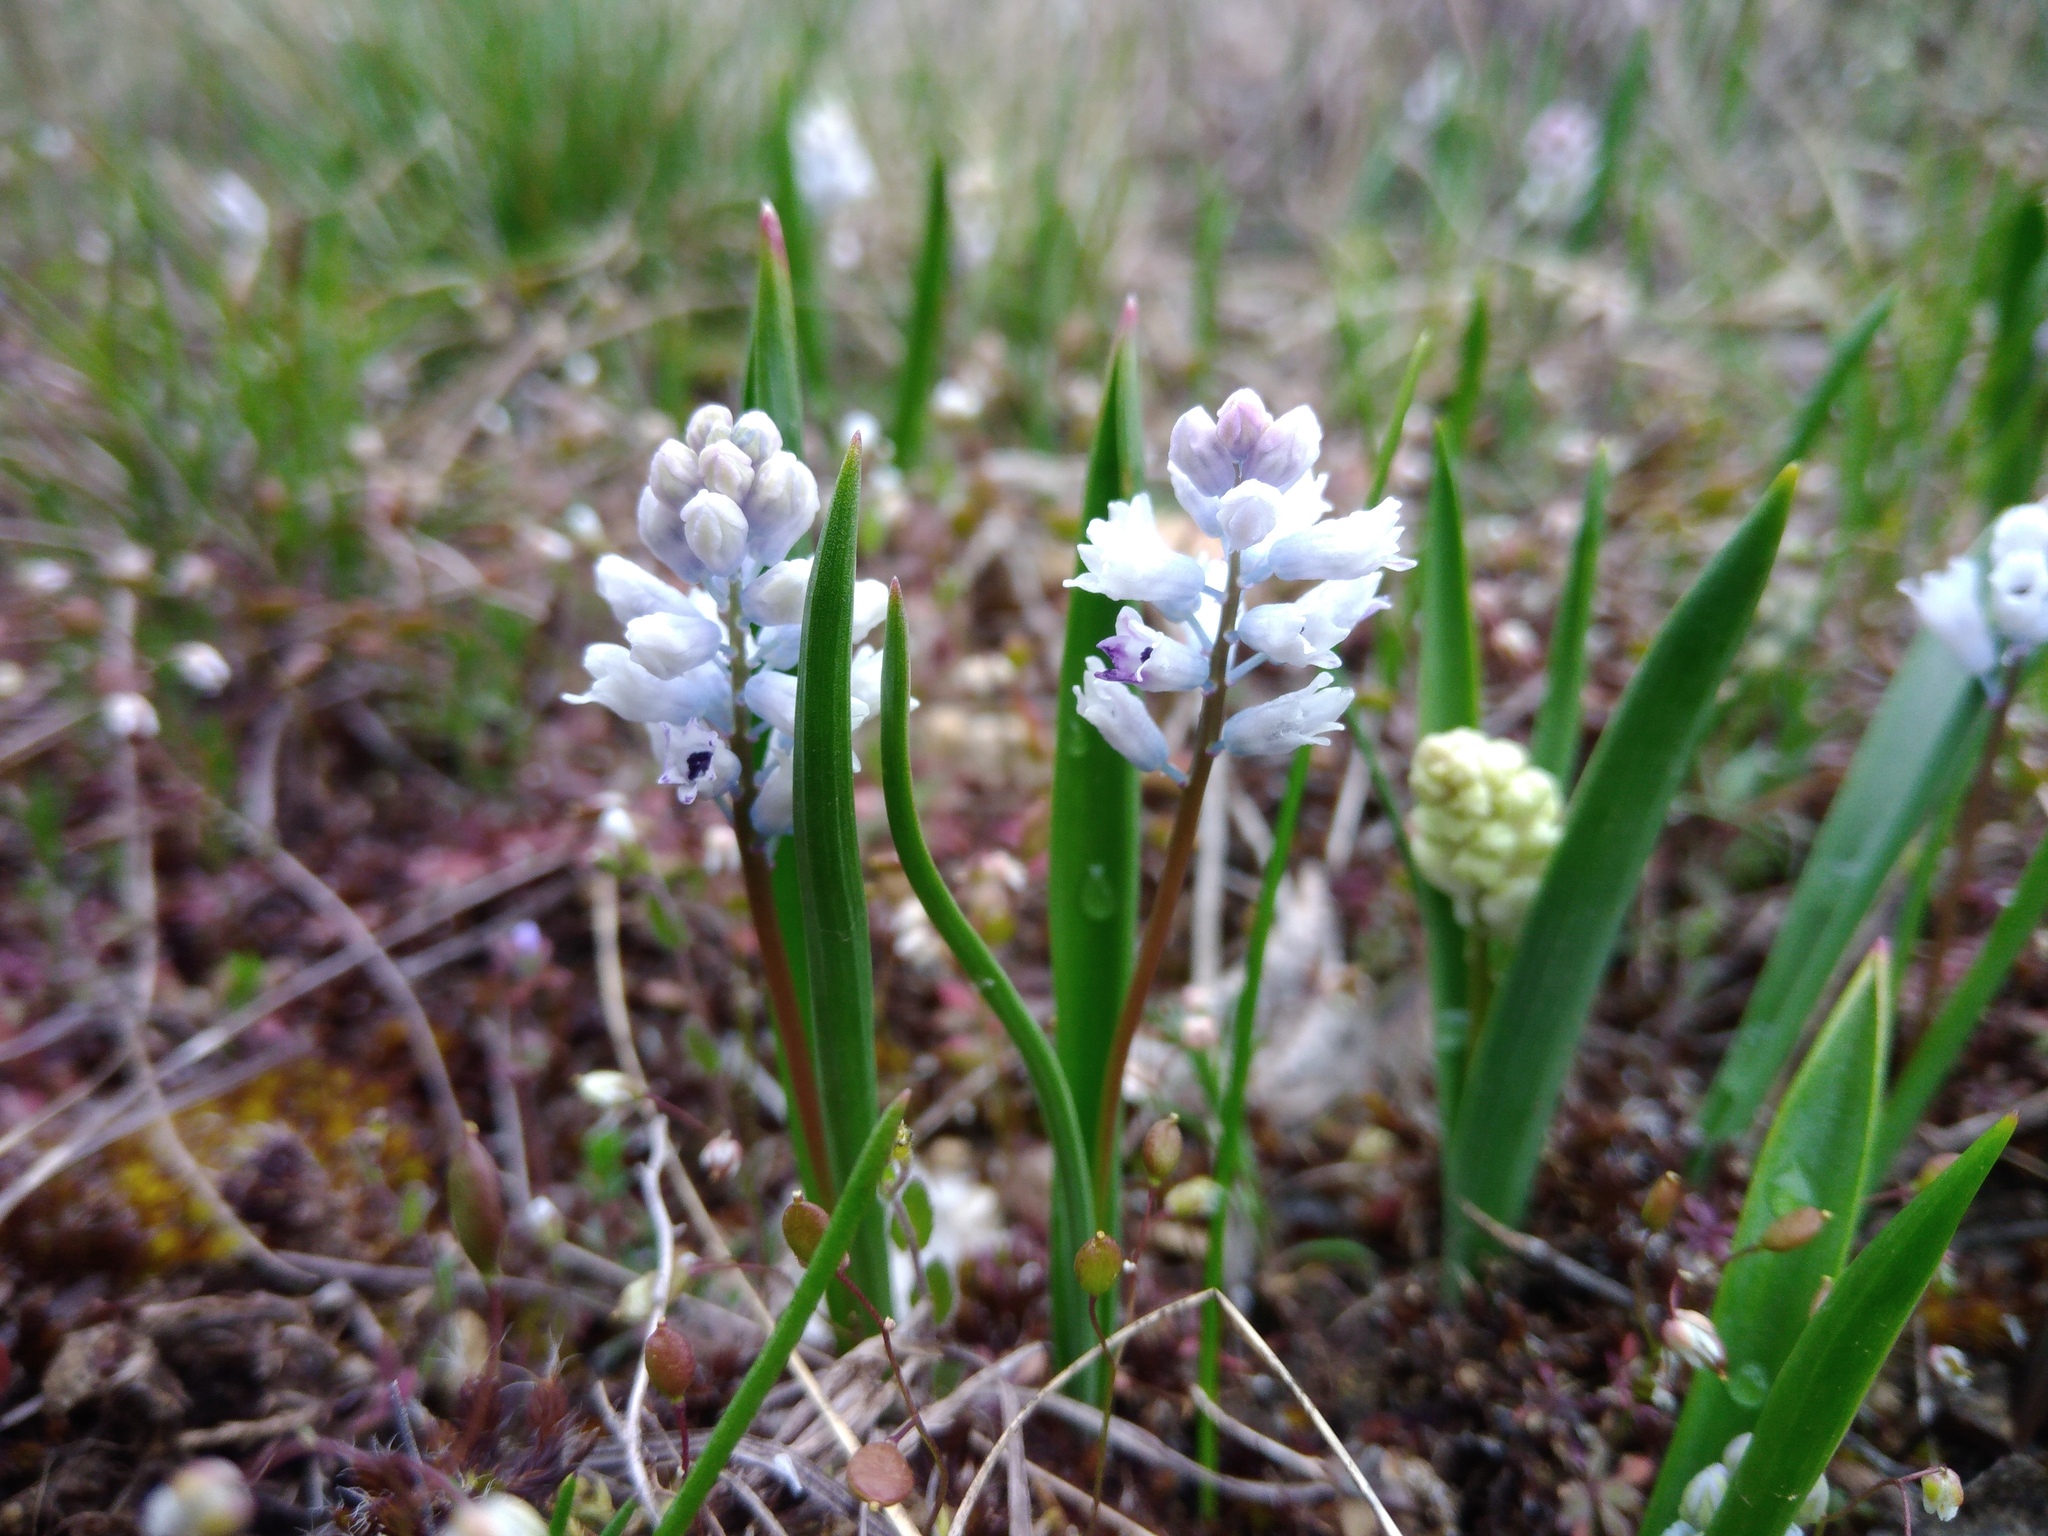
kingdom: Plantae
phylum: Tracheophyta
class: Liliopsida
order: Asparagales
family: Asparagaceae
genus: Hyacinthella
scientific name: Hyacinthella leucophaea
